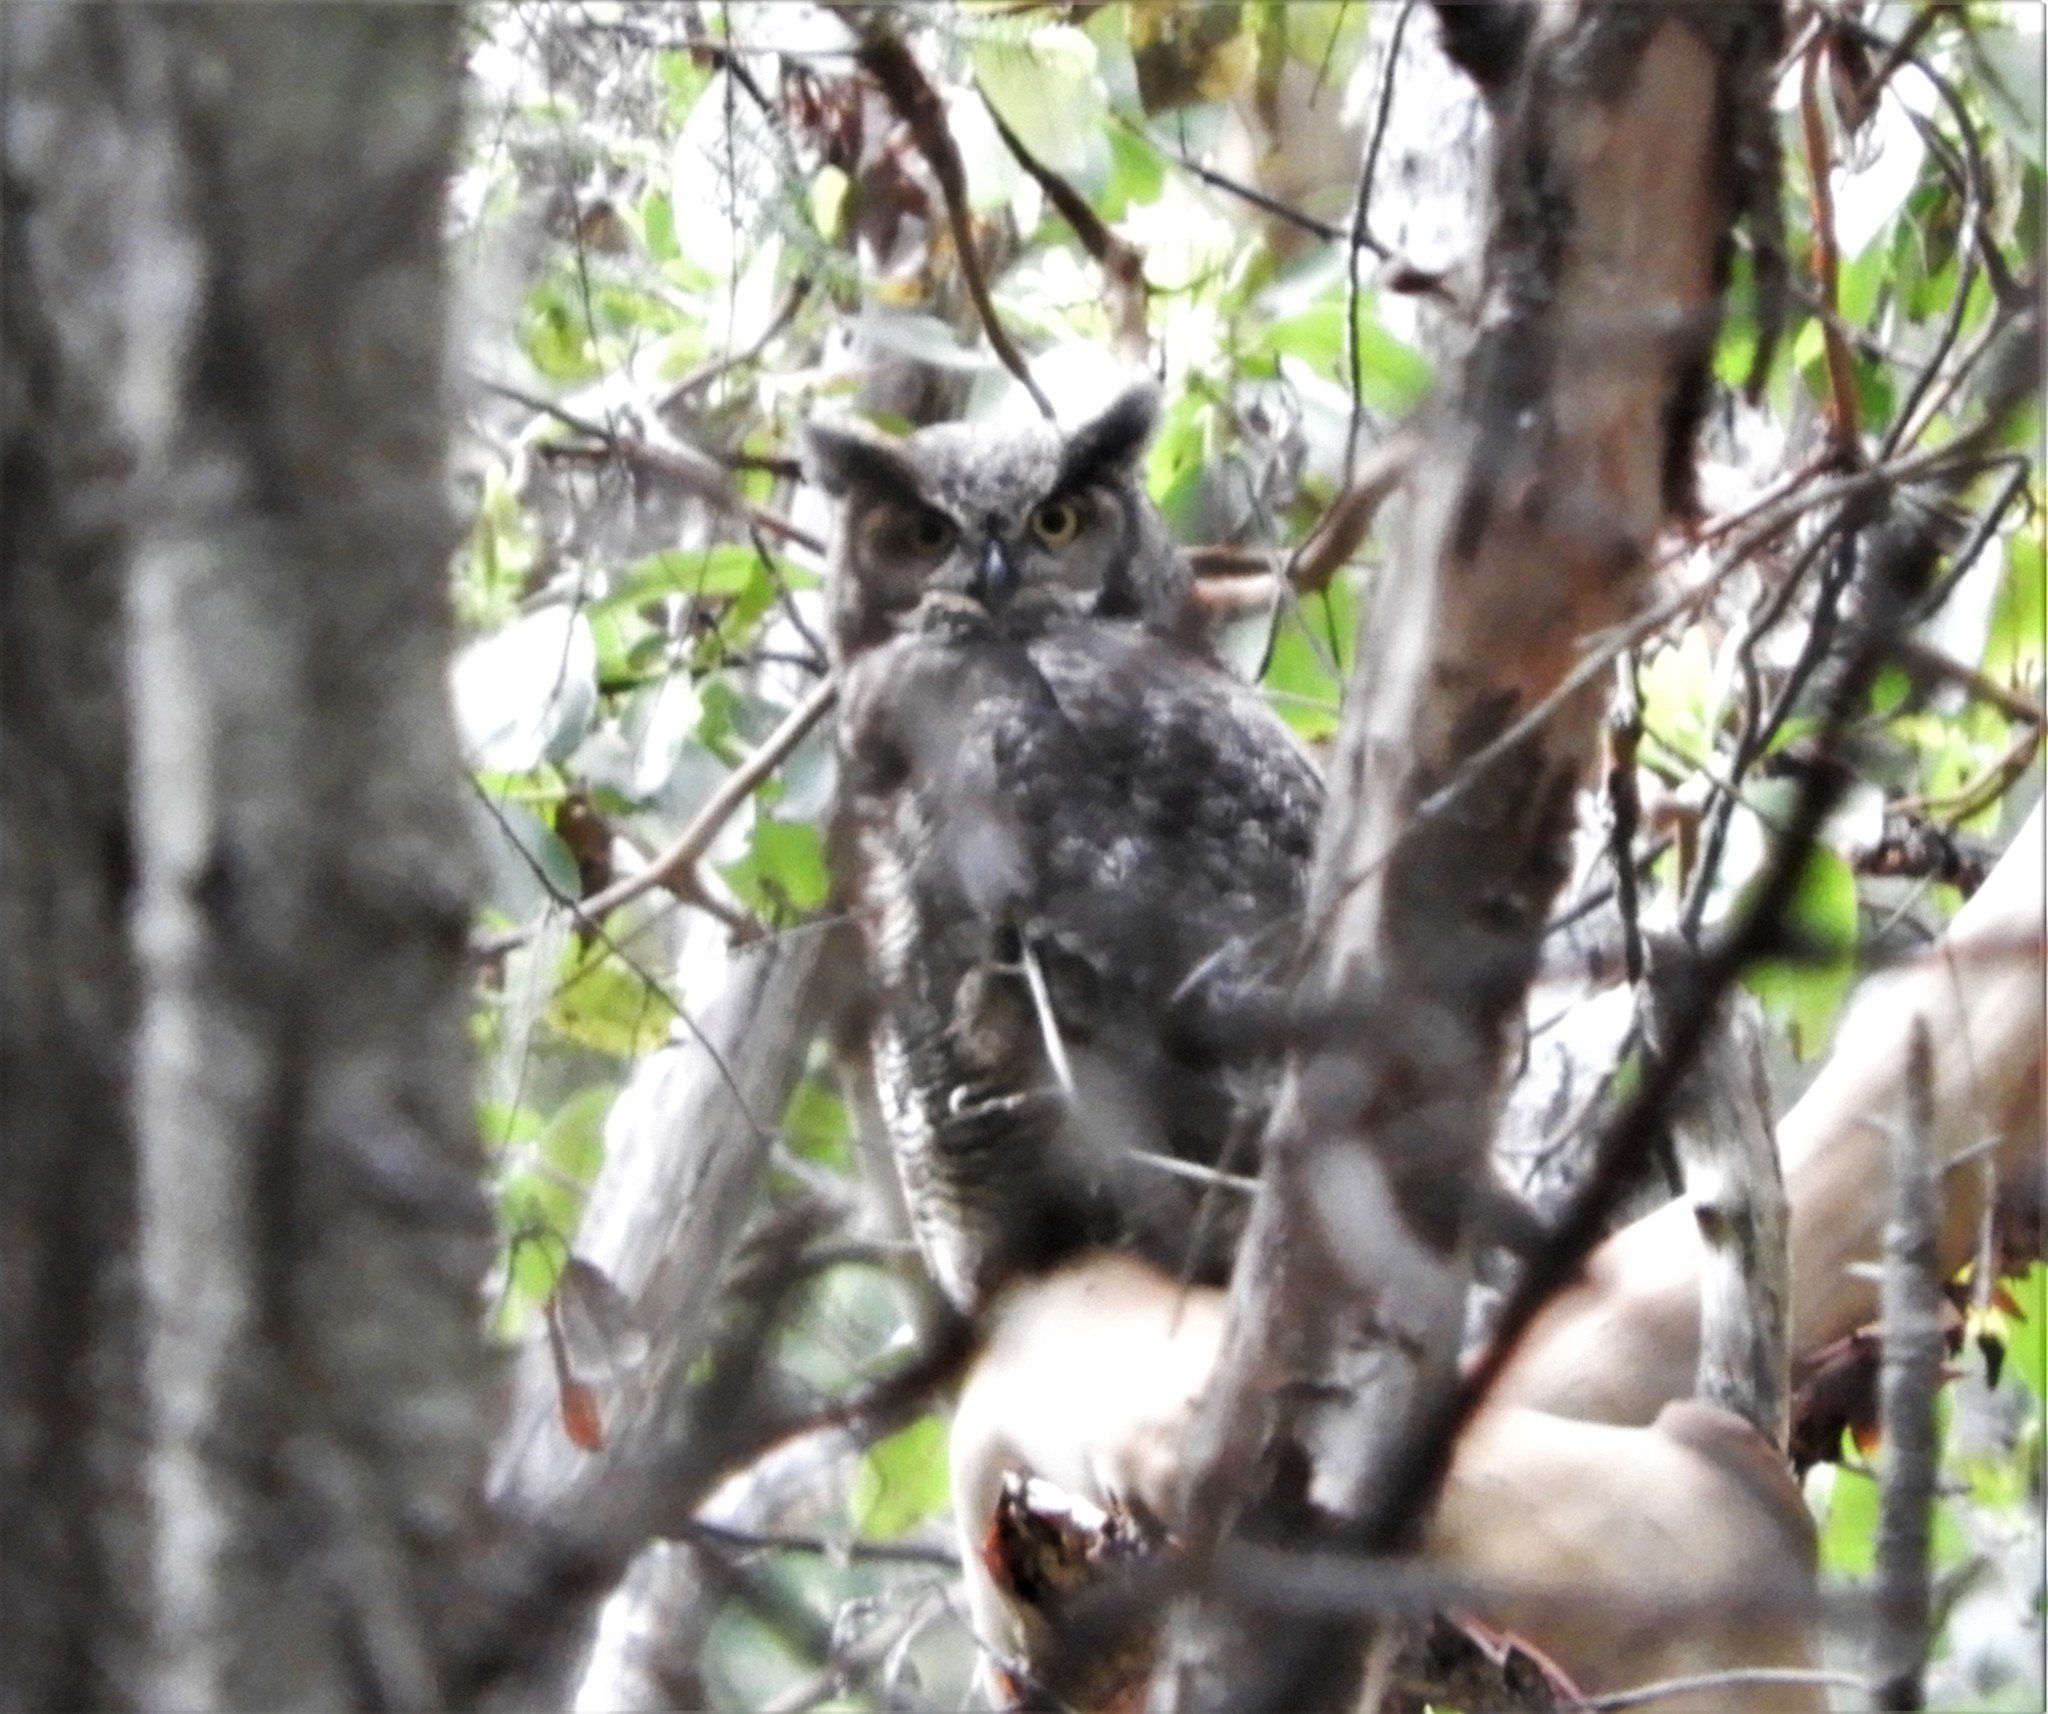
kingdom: Animalia
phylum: Chordata
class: Aves
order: Strigiformes
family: Strigidae
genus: Bubo
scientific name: Bubo virginianus
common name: Great horned owl
